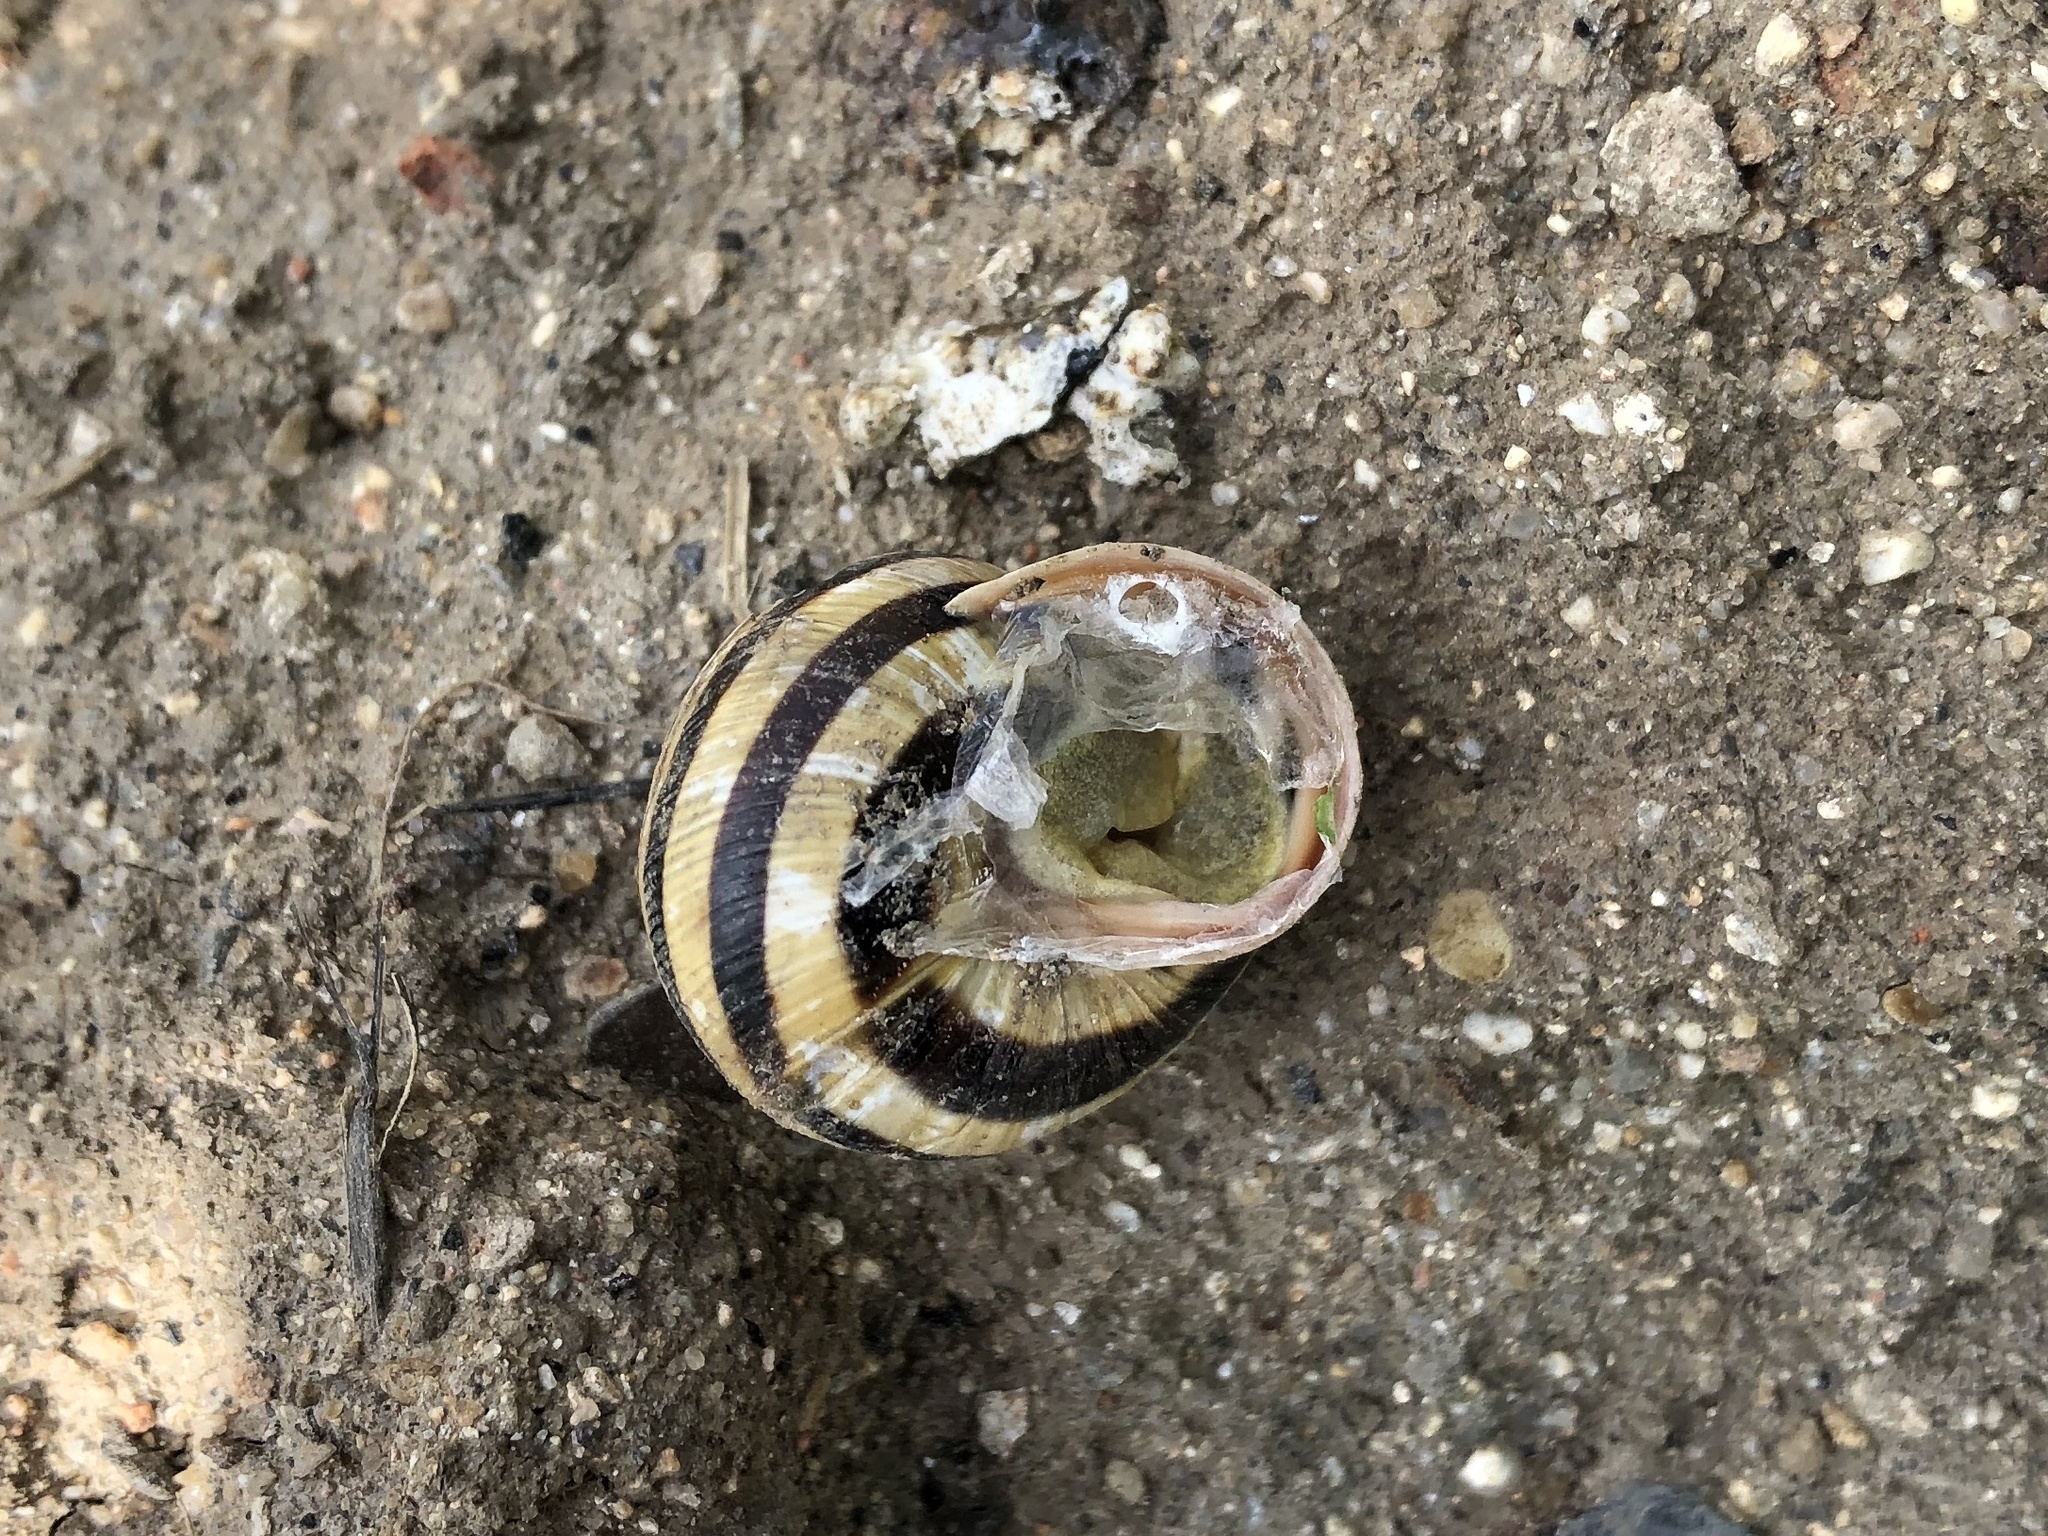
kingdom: Animalia
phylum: Mollusca
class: Gastropoda
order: Stylommatophora
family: Helicidae
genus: Caucasotachea
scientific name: Caucasotachea vindobonensis
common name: European helicid land snail
